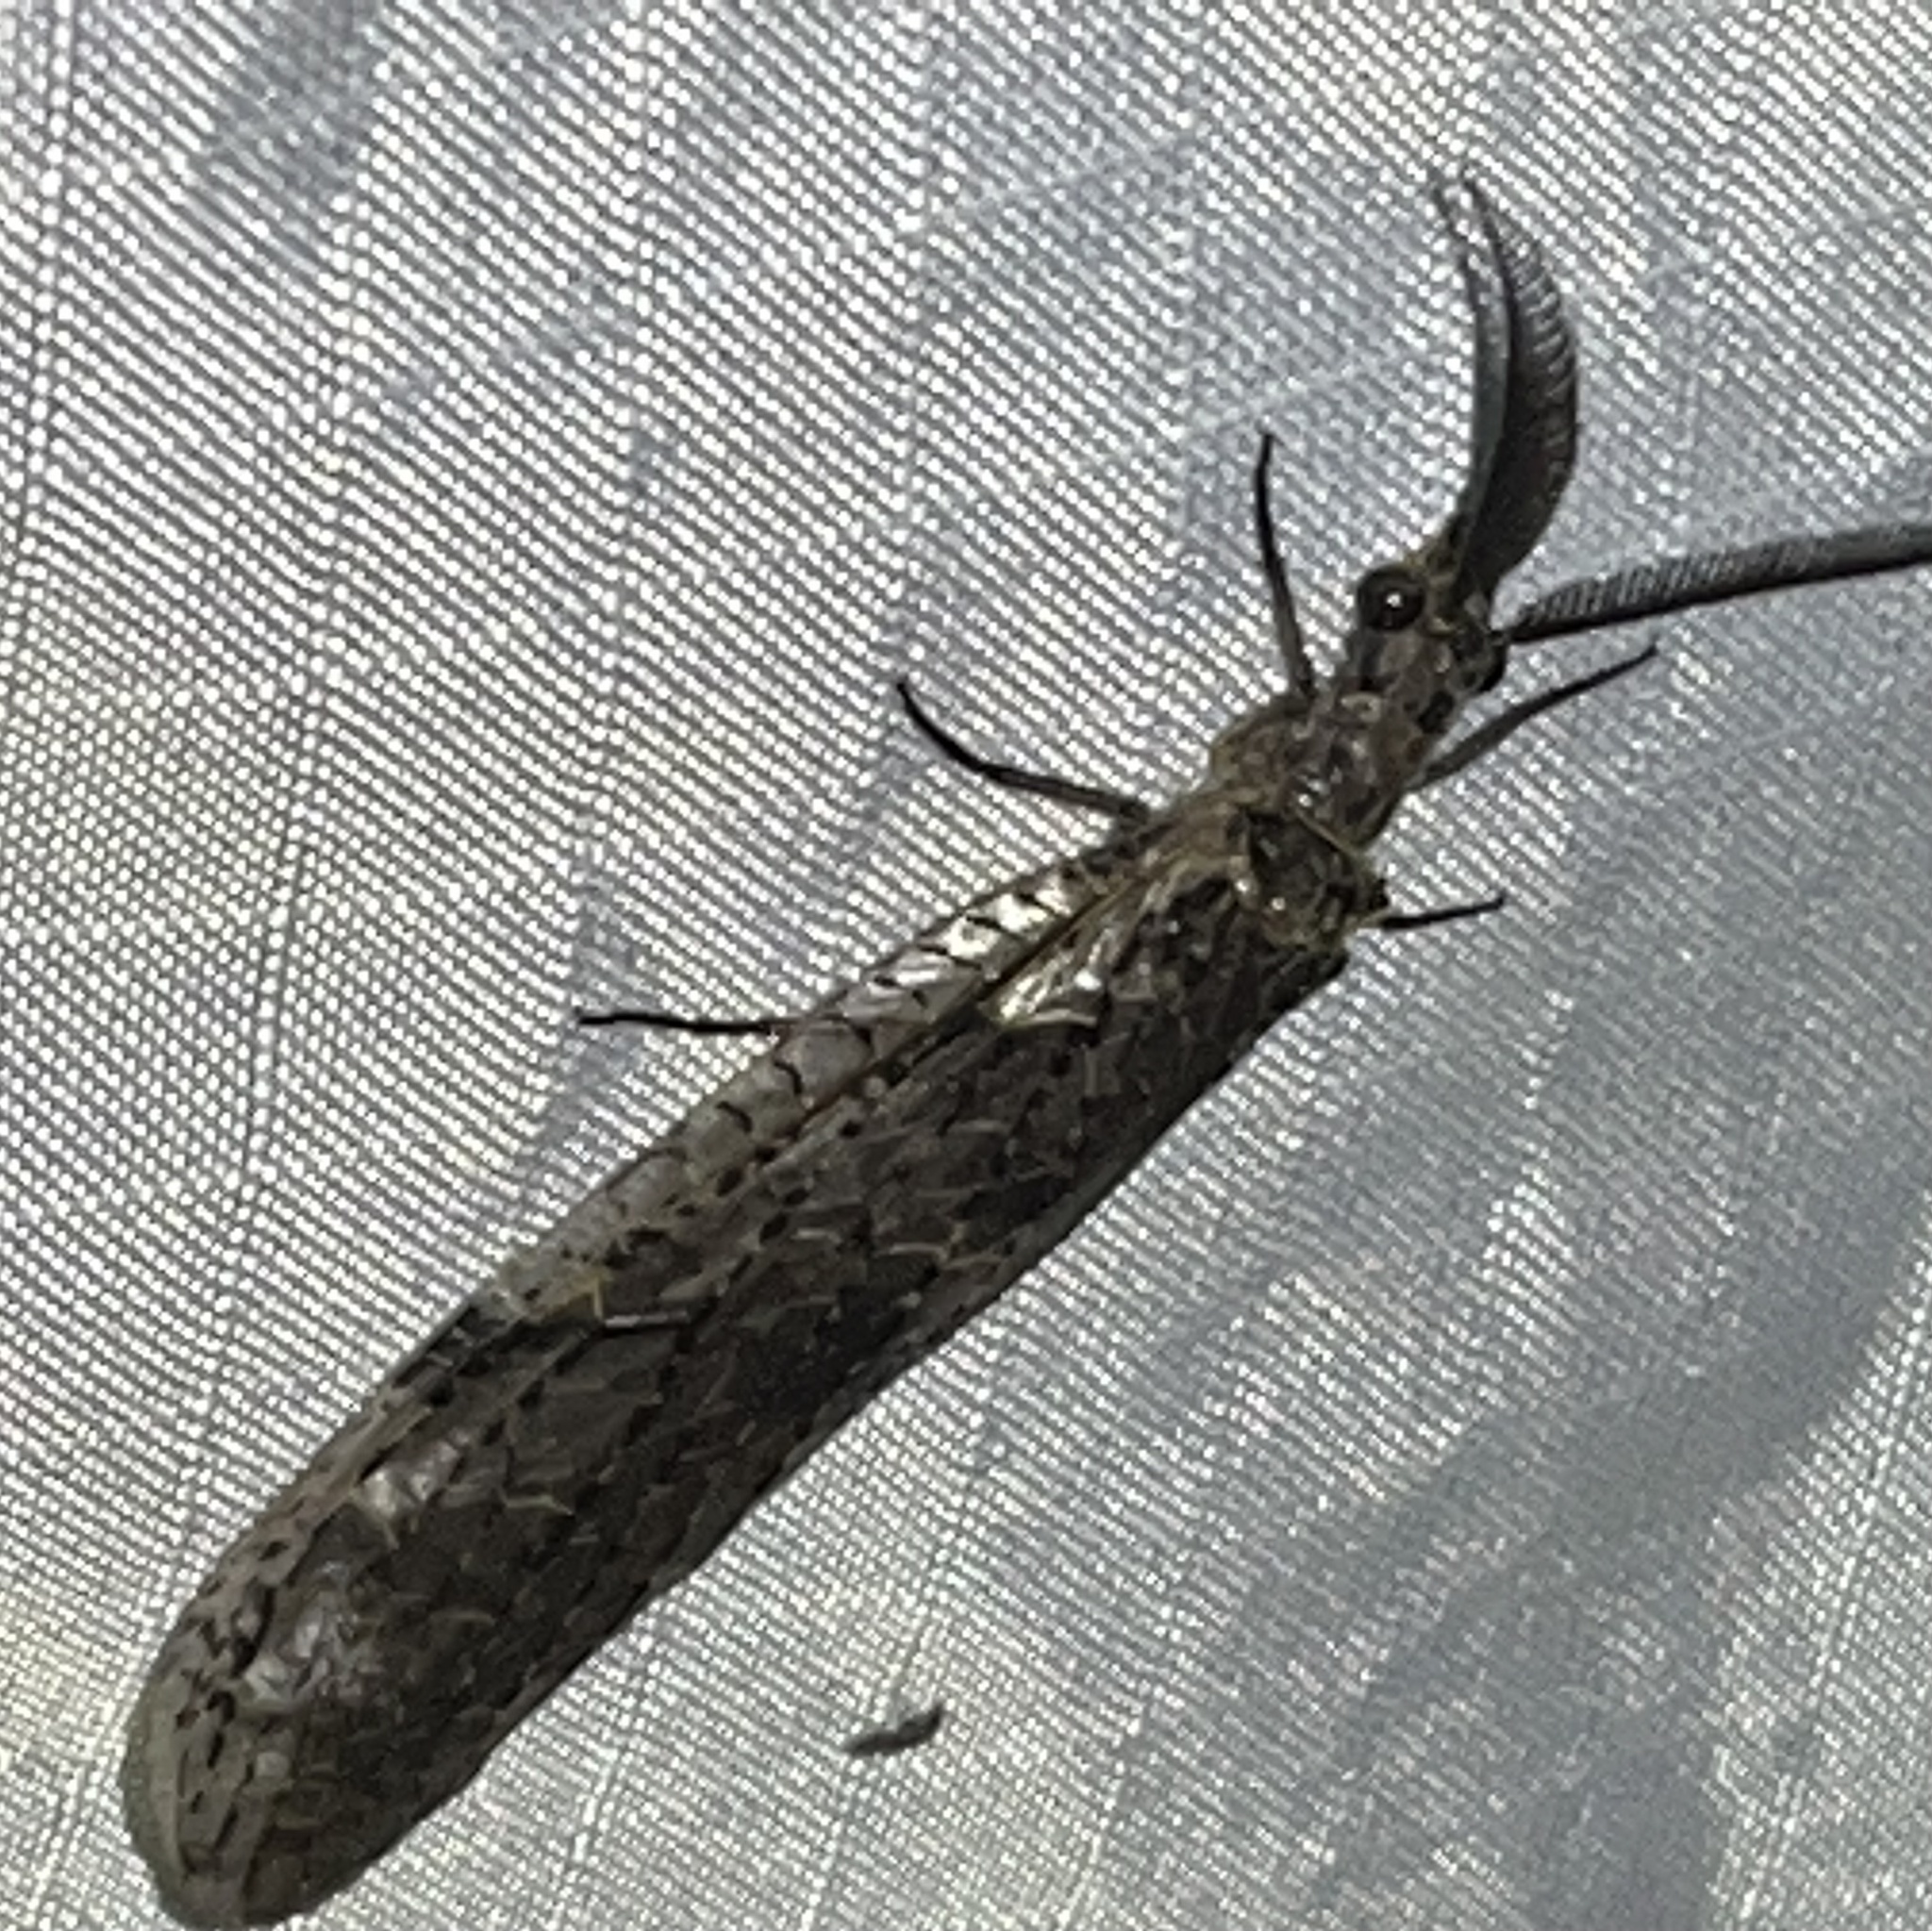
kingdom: Animalia
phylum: Arthropoda
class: Insecta
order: Megaloptera
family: Corydalidae
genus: Chauliodes
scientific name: Chauliodes rastricornis
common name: Spring fishfly
